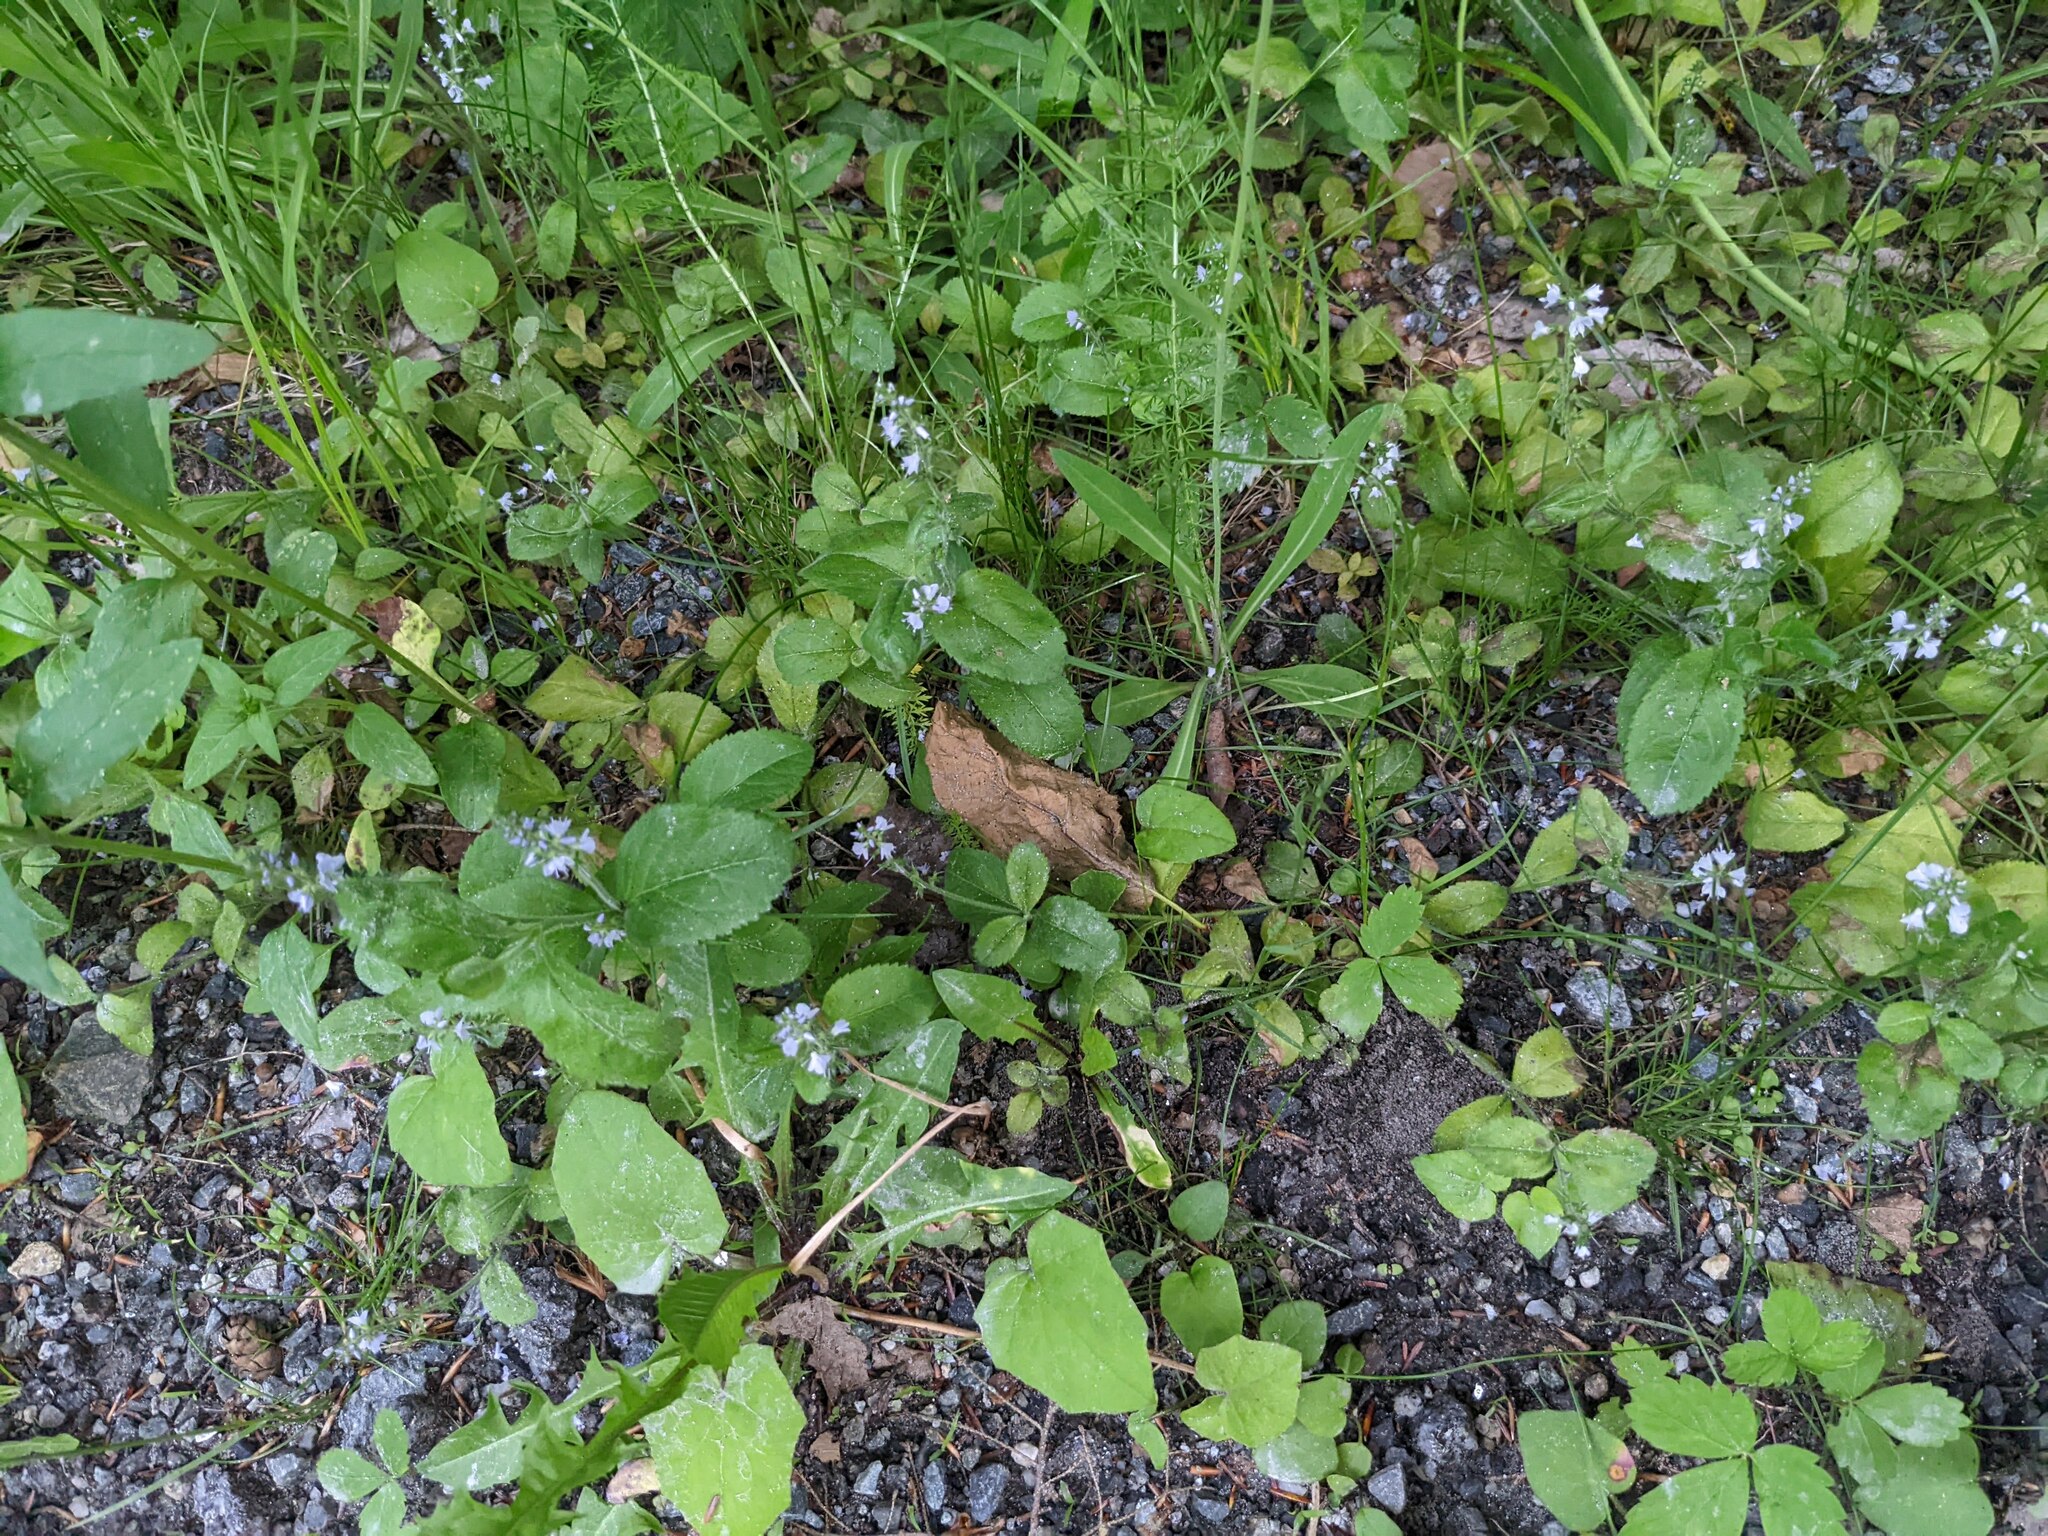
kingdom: Plantae
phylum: Tracheophyta
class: Magnoliopsida
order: Lamiales
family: Plantaginaceae
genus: Veronica
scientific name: Veronica officinalis
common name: Common speedwell
